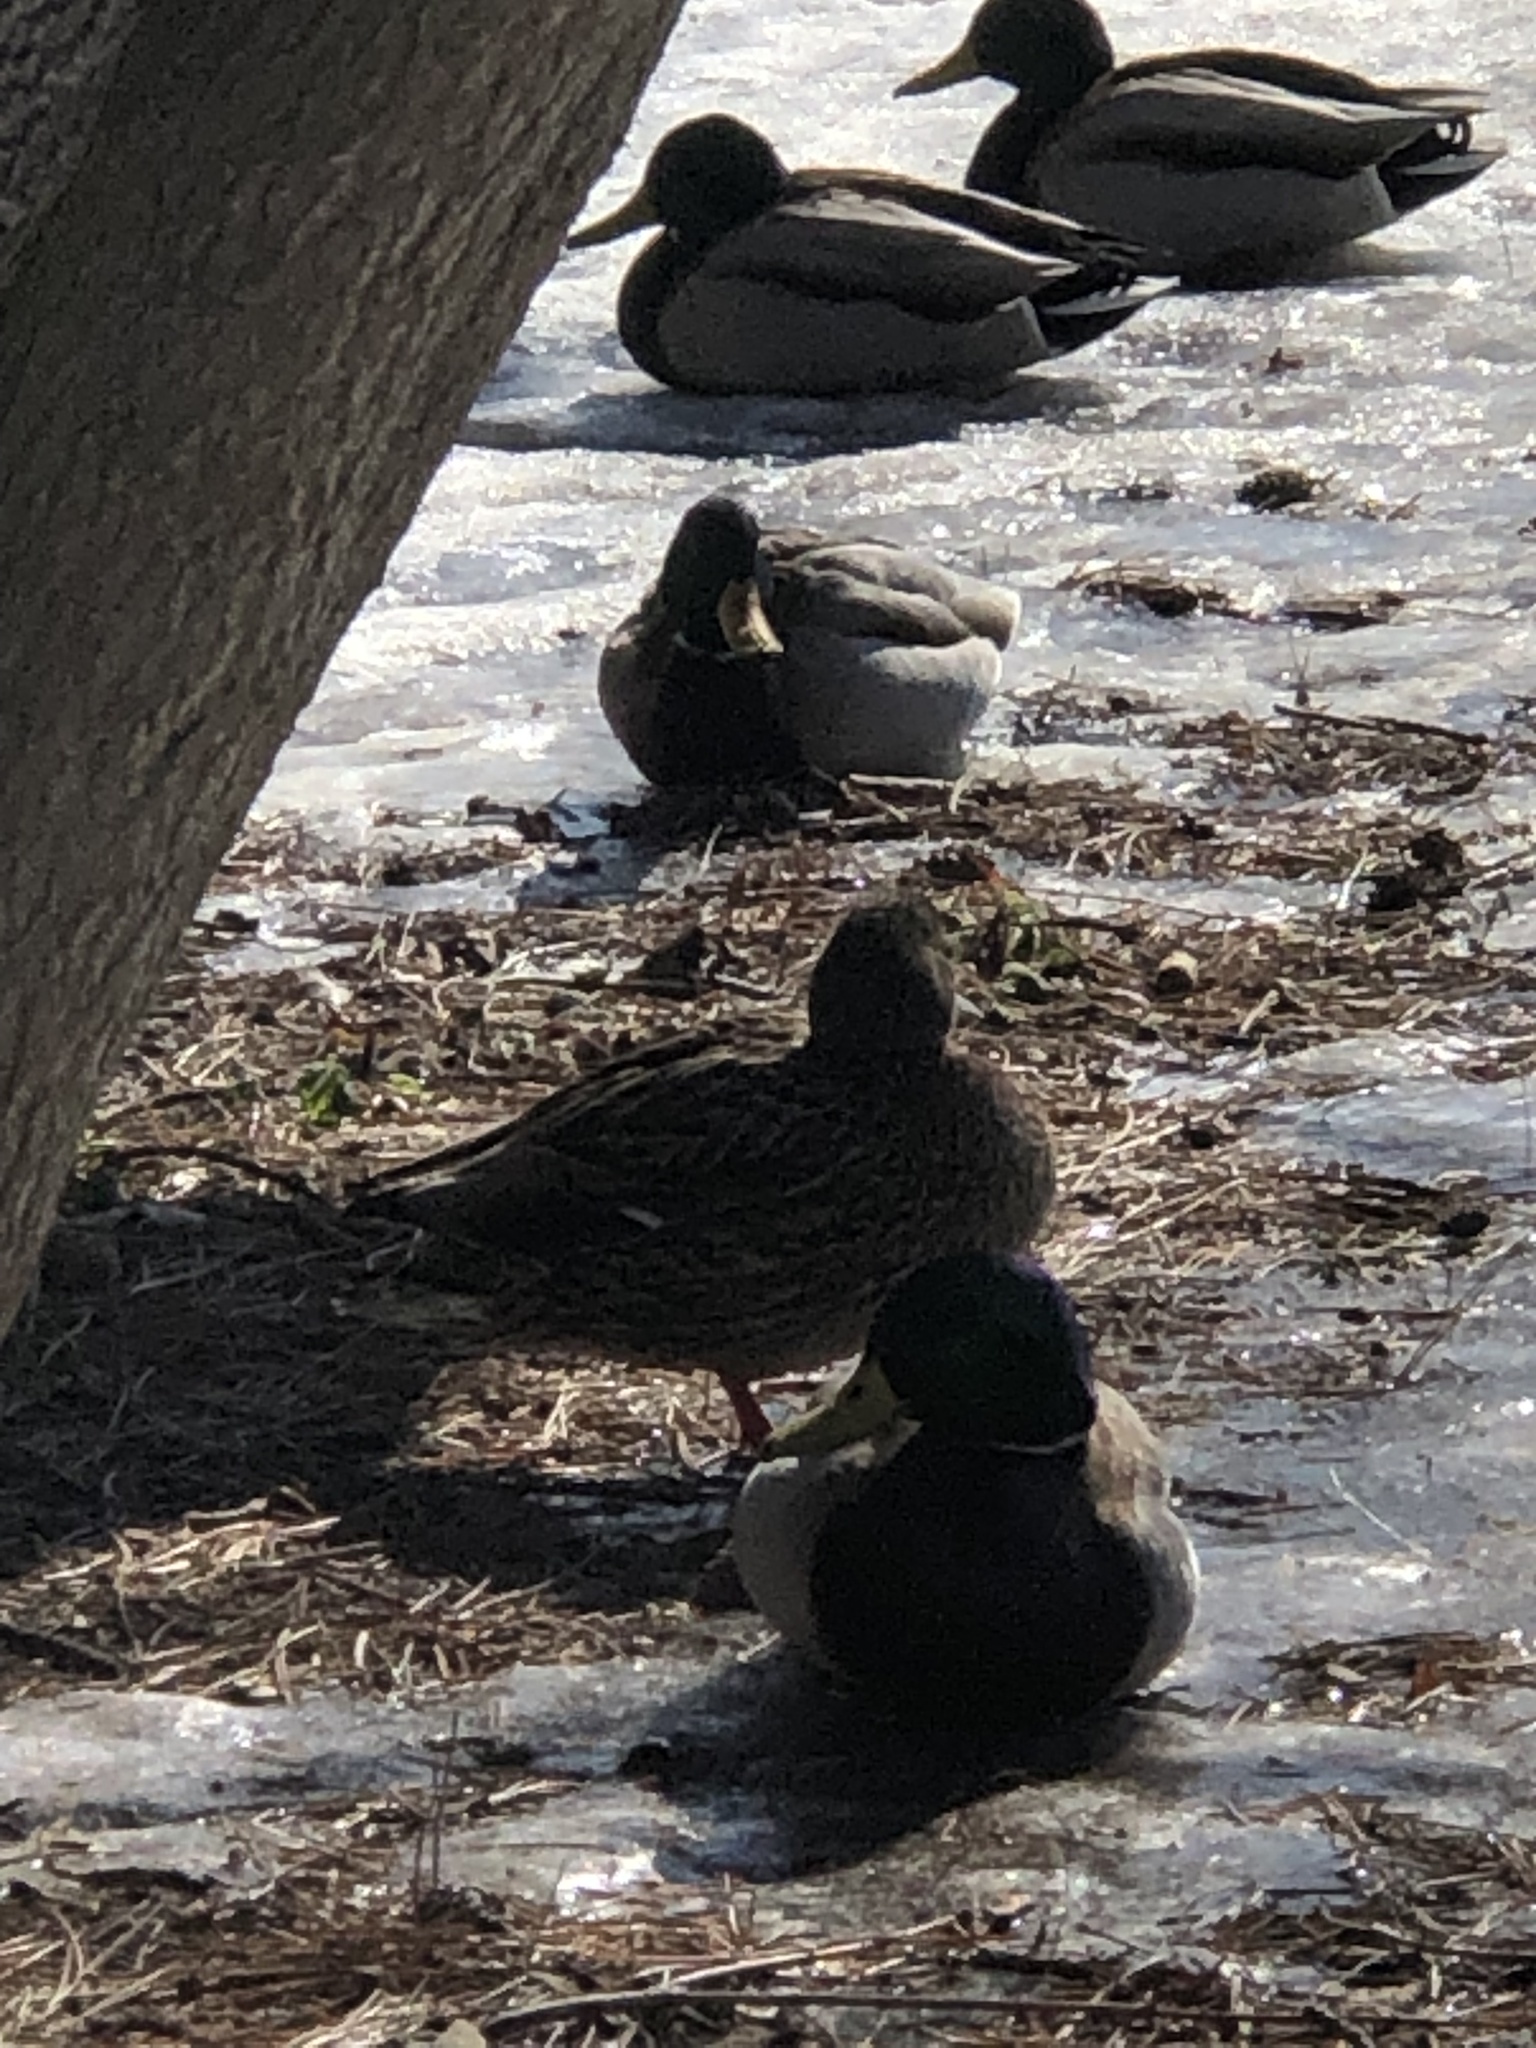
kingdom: Animalia
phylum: Chordata
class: Aves
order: Anseriformes
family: Anatidae
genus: Anas
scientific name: Anas platyrhynchos
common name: Mallard
